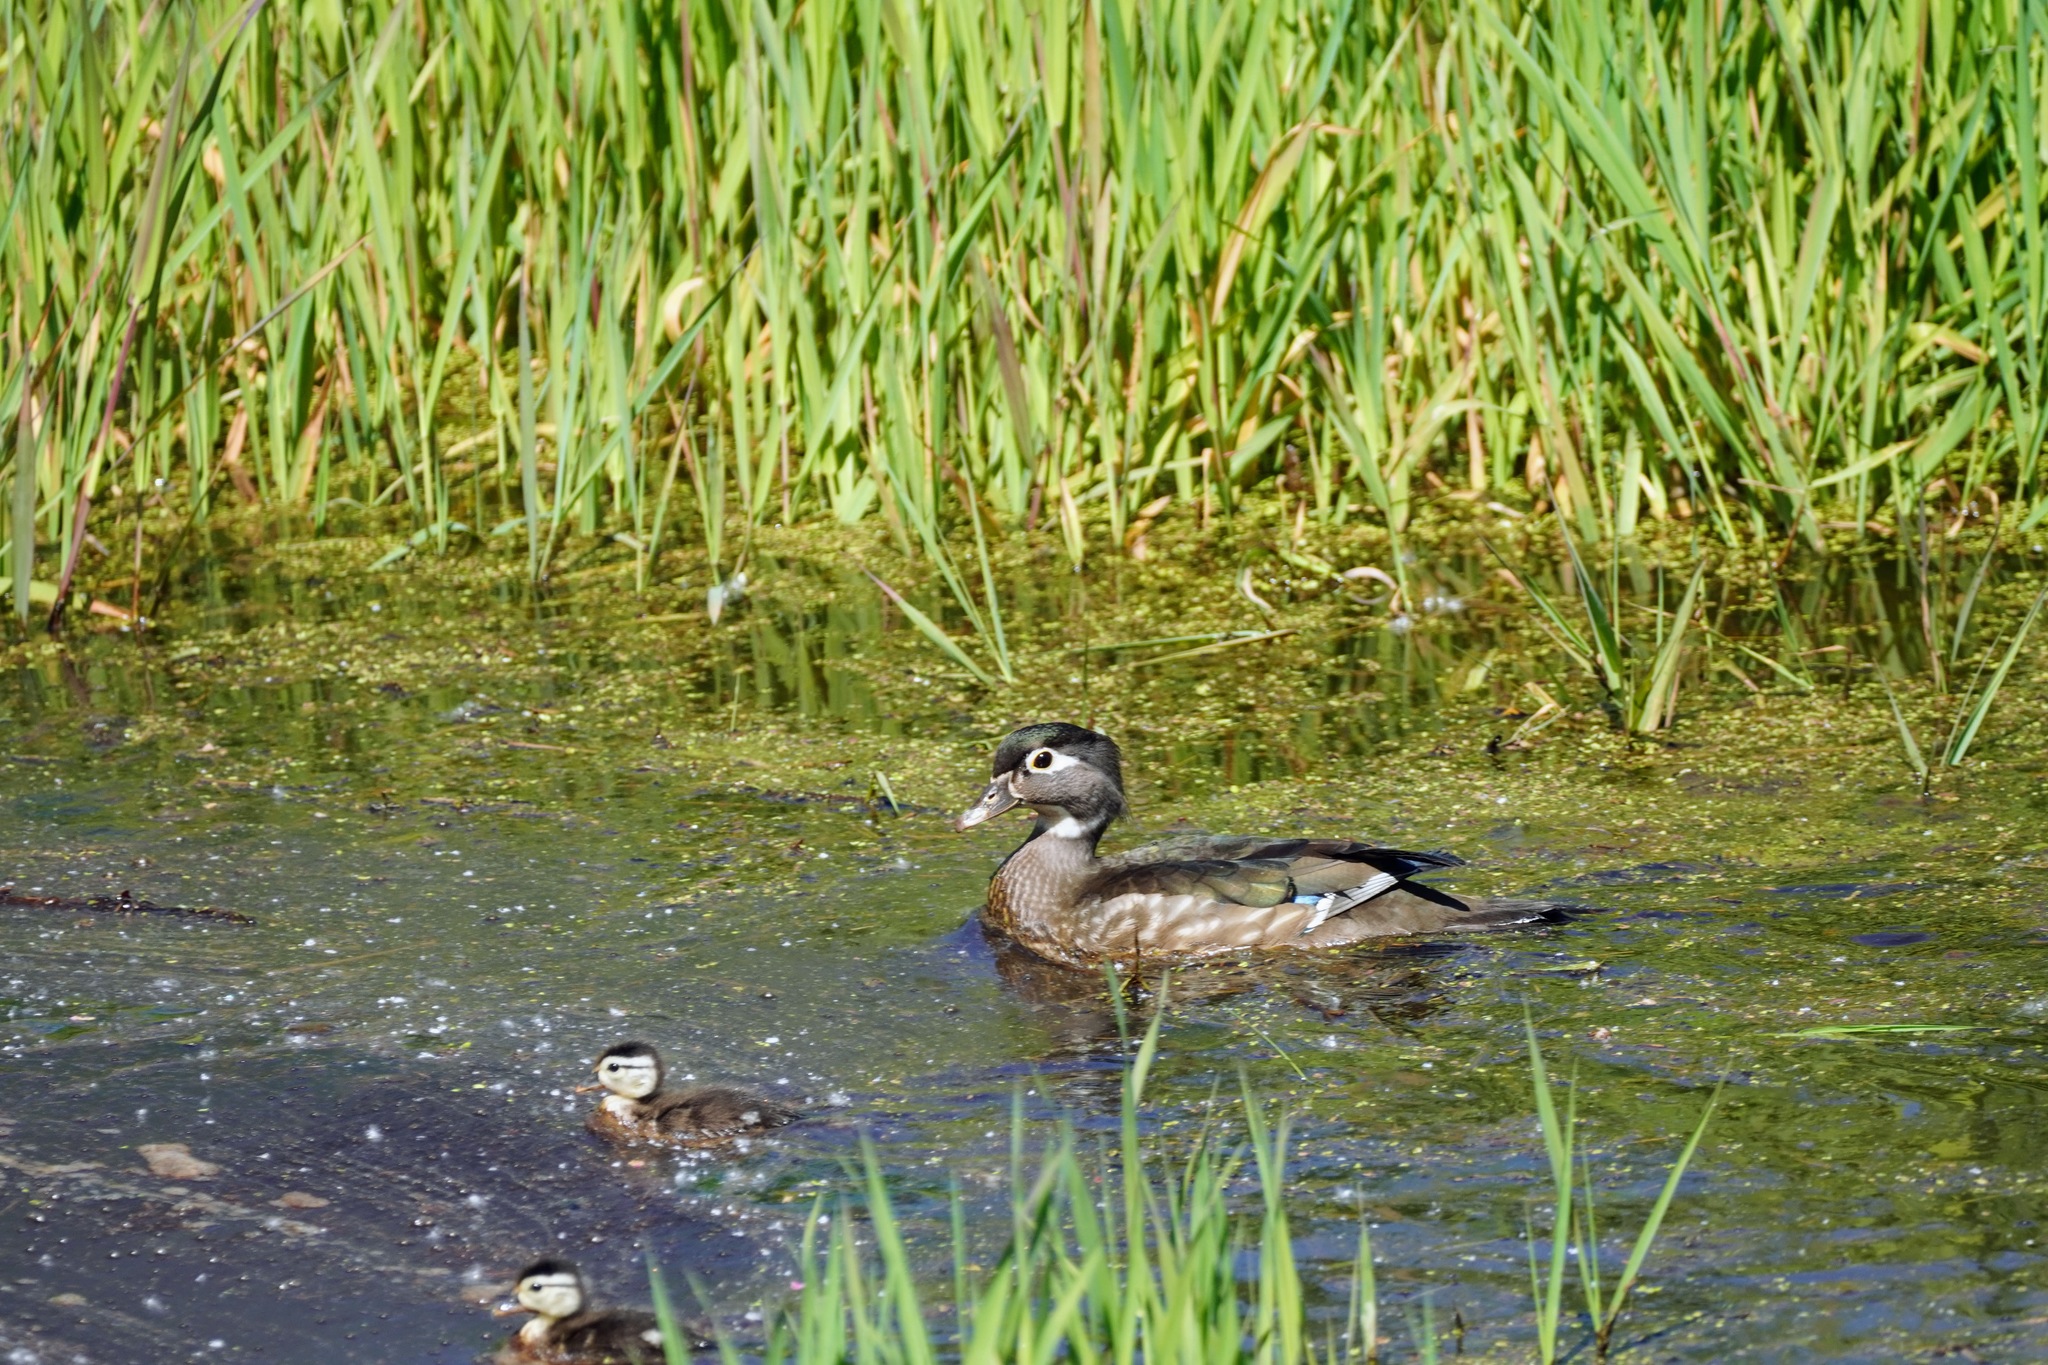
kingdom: Animalia
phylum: Chordata
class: Aves
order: Anseriformes
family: Anatidae
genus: Aix
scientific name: Aix sponsa
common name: Wood duck
